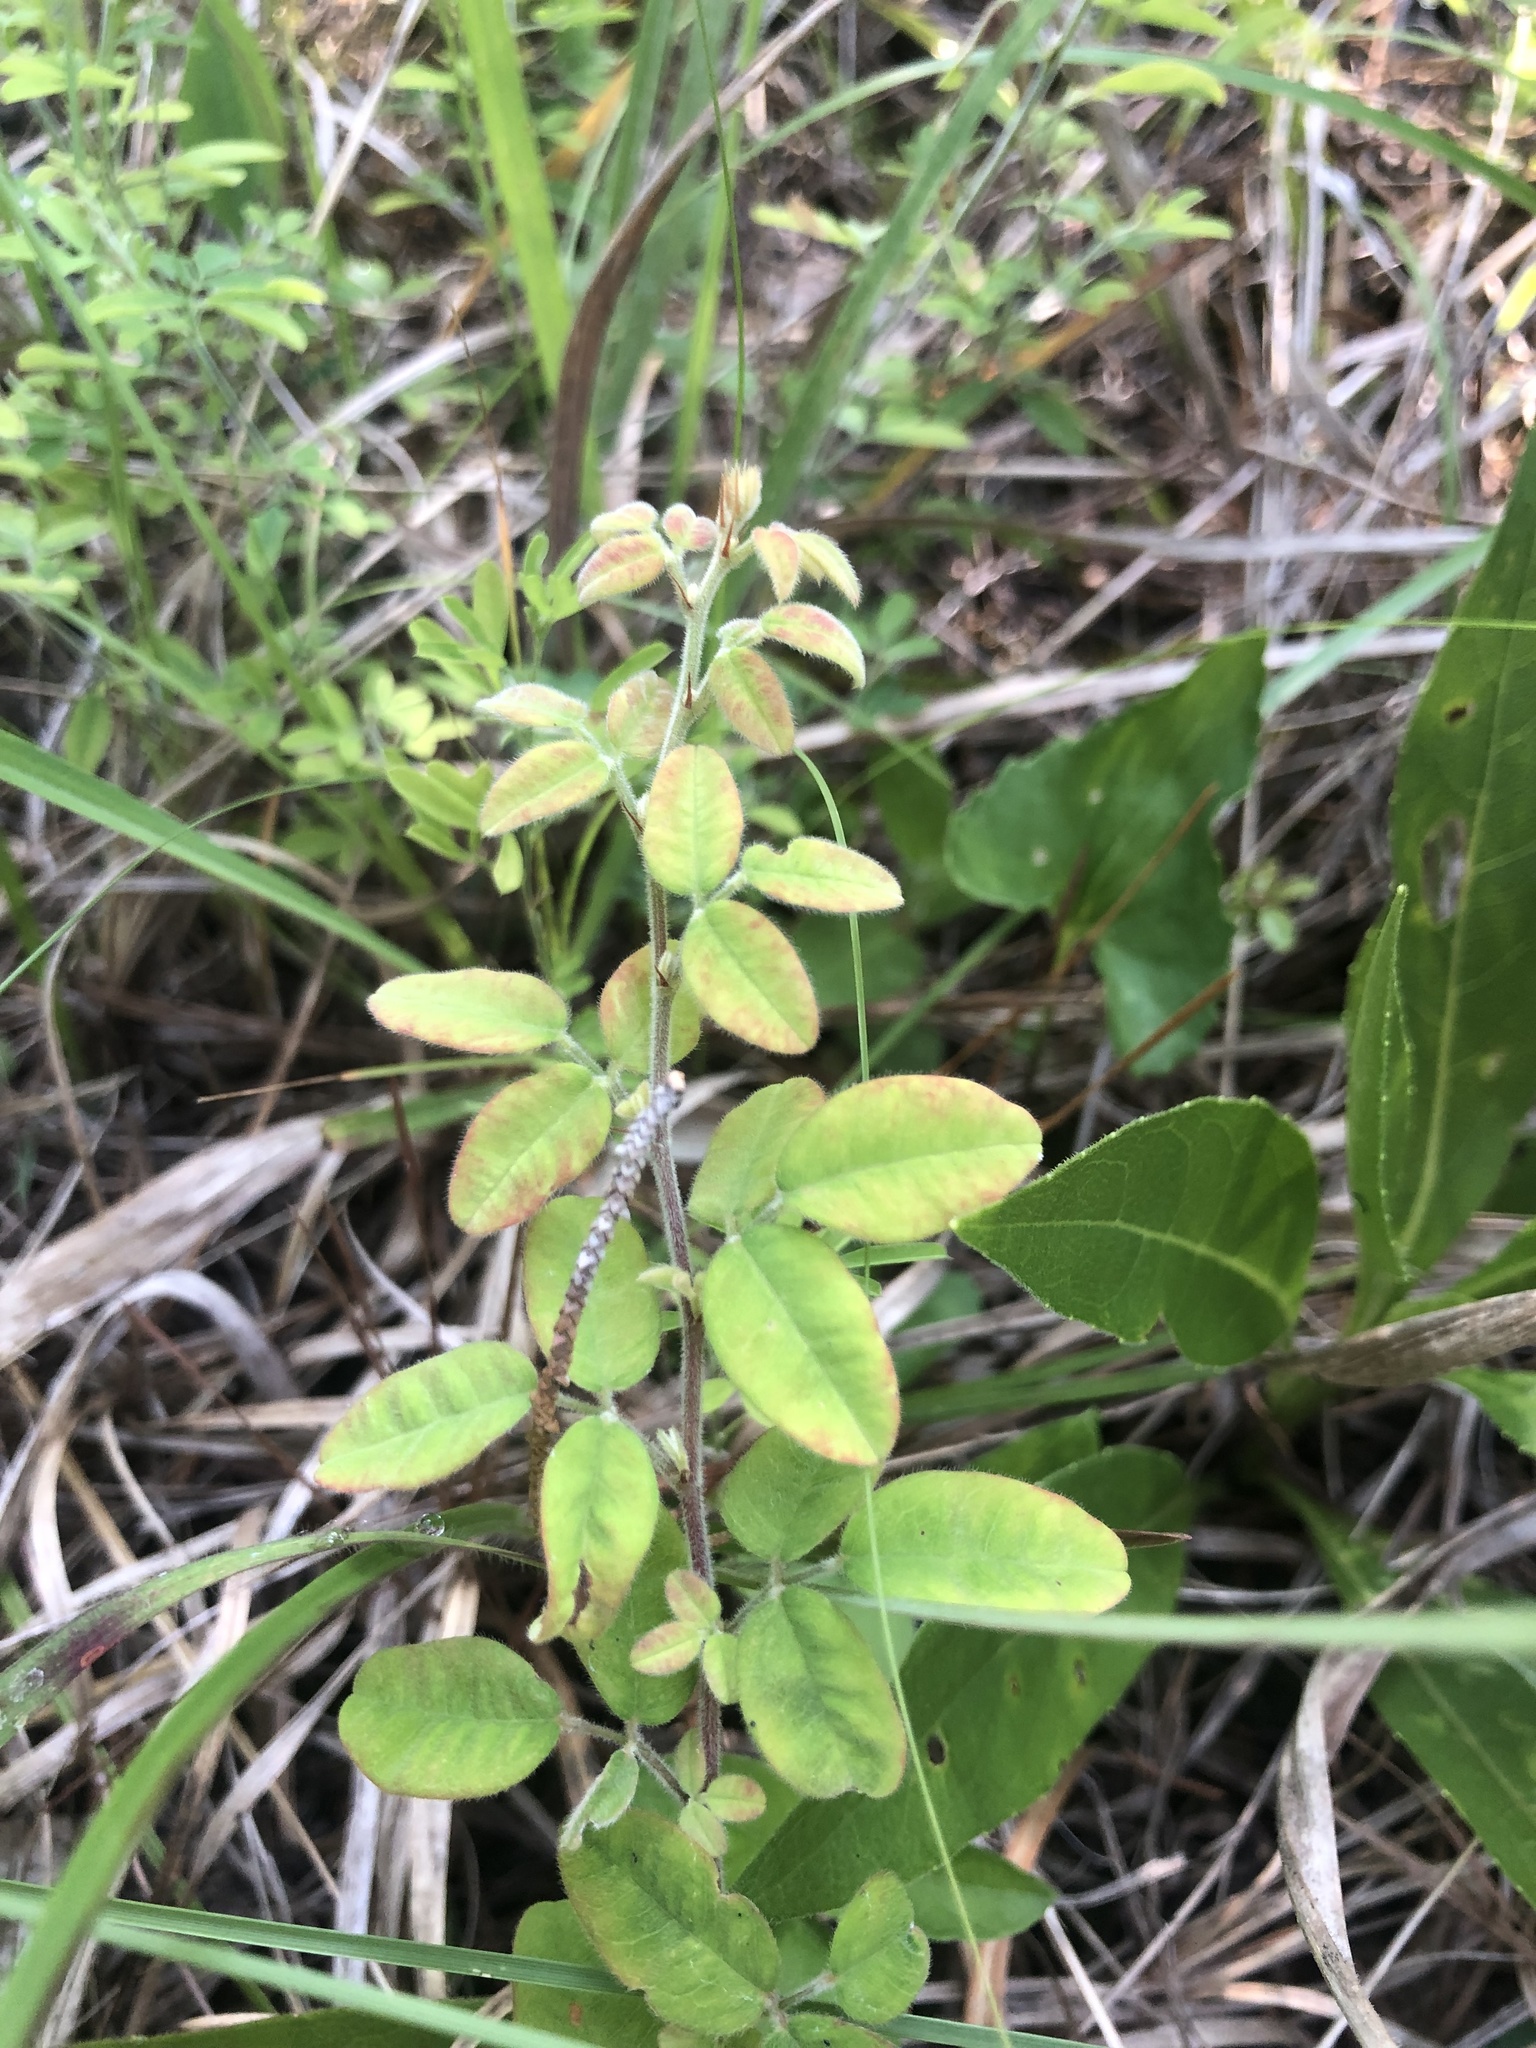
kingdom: Plantae
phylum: Tracheophyta
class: Magnoliopsida
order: Fabales
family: Fabaceae
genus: Lespedeza
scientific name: Lespedeza procumbens
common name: Downy trailing bush-clover
